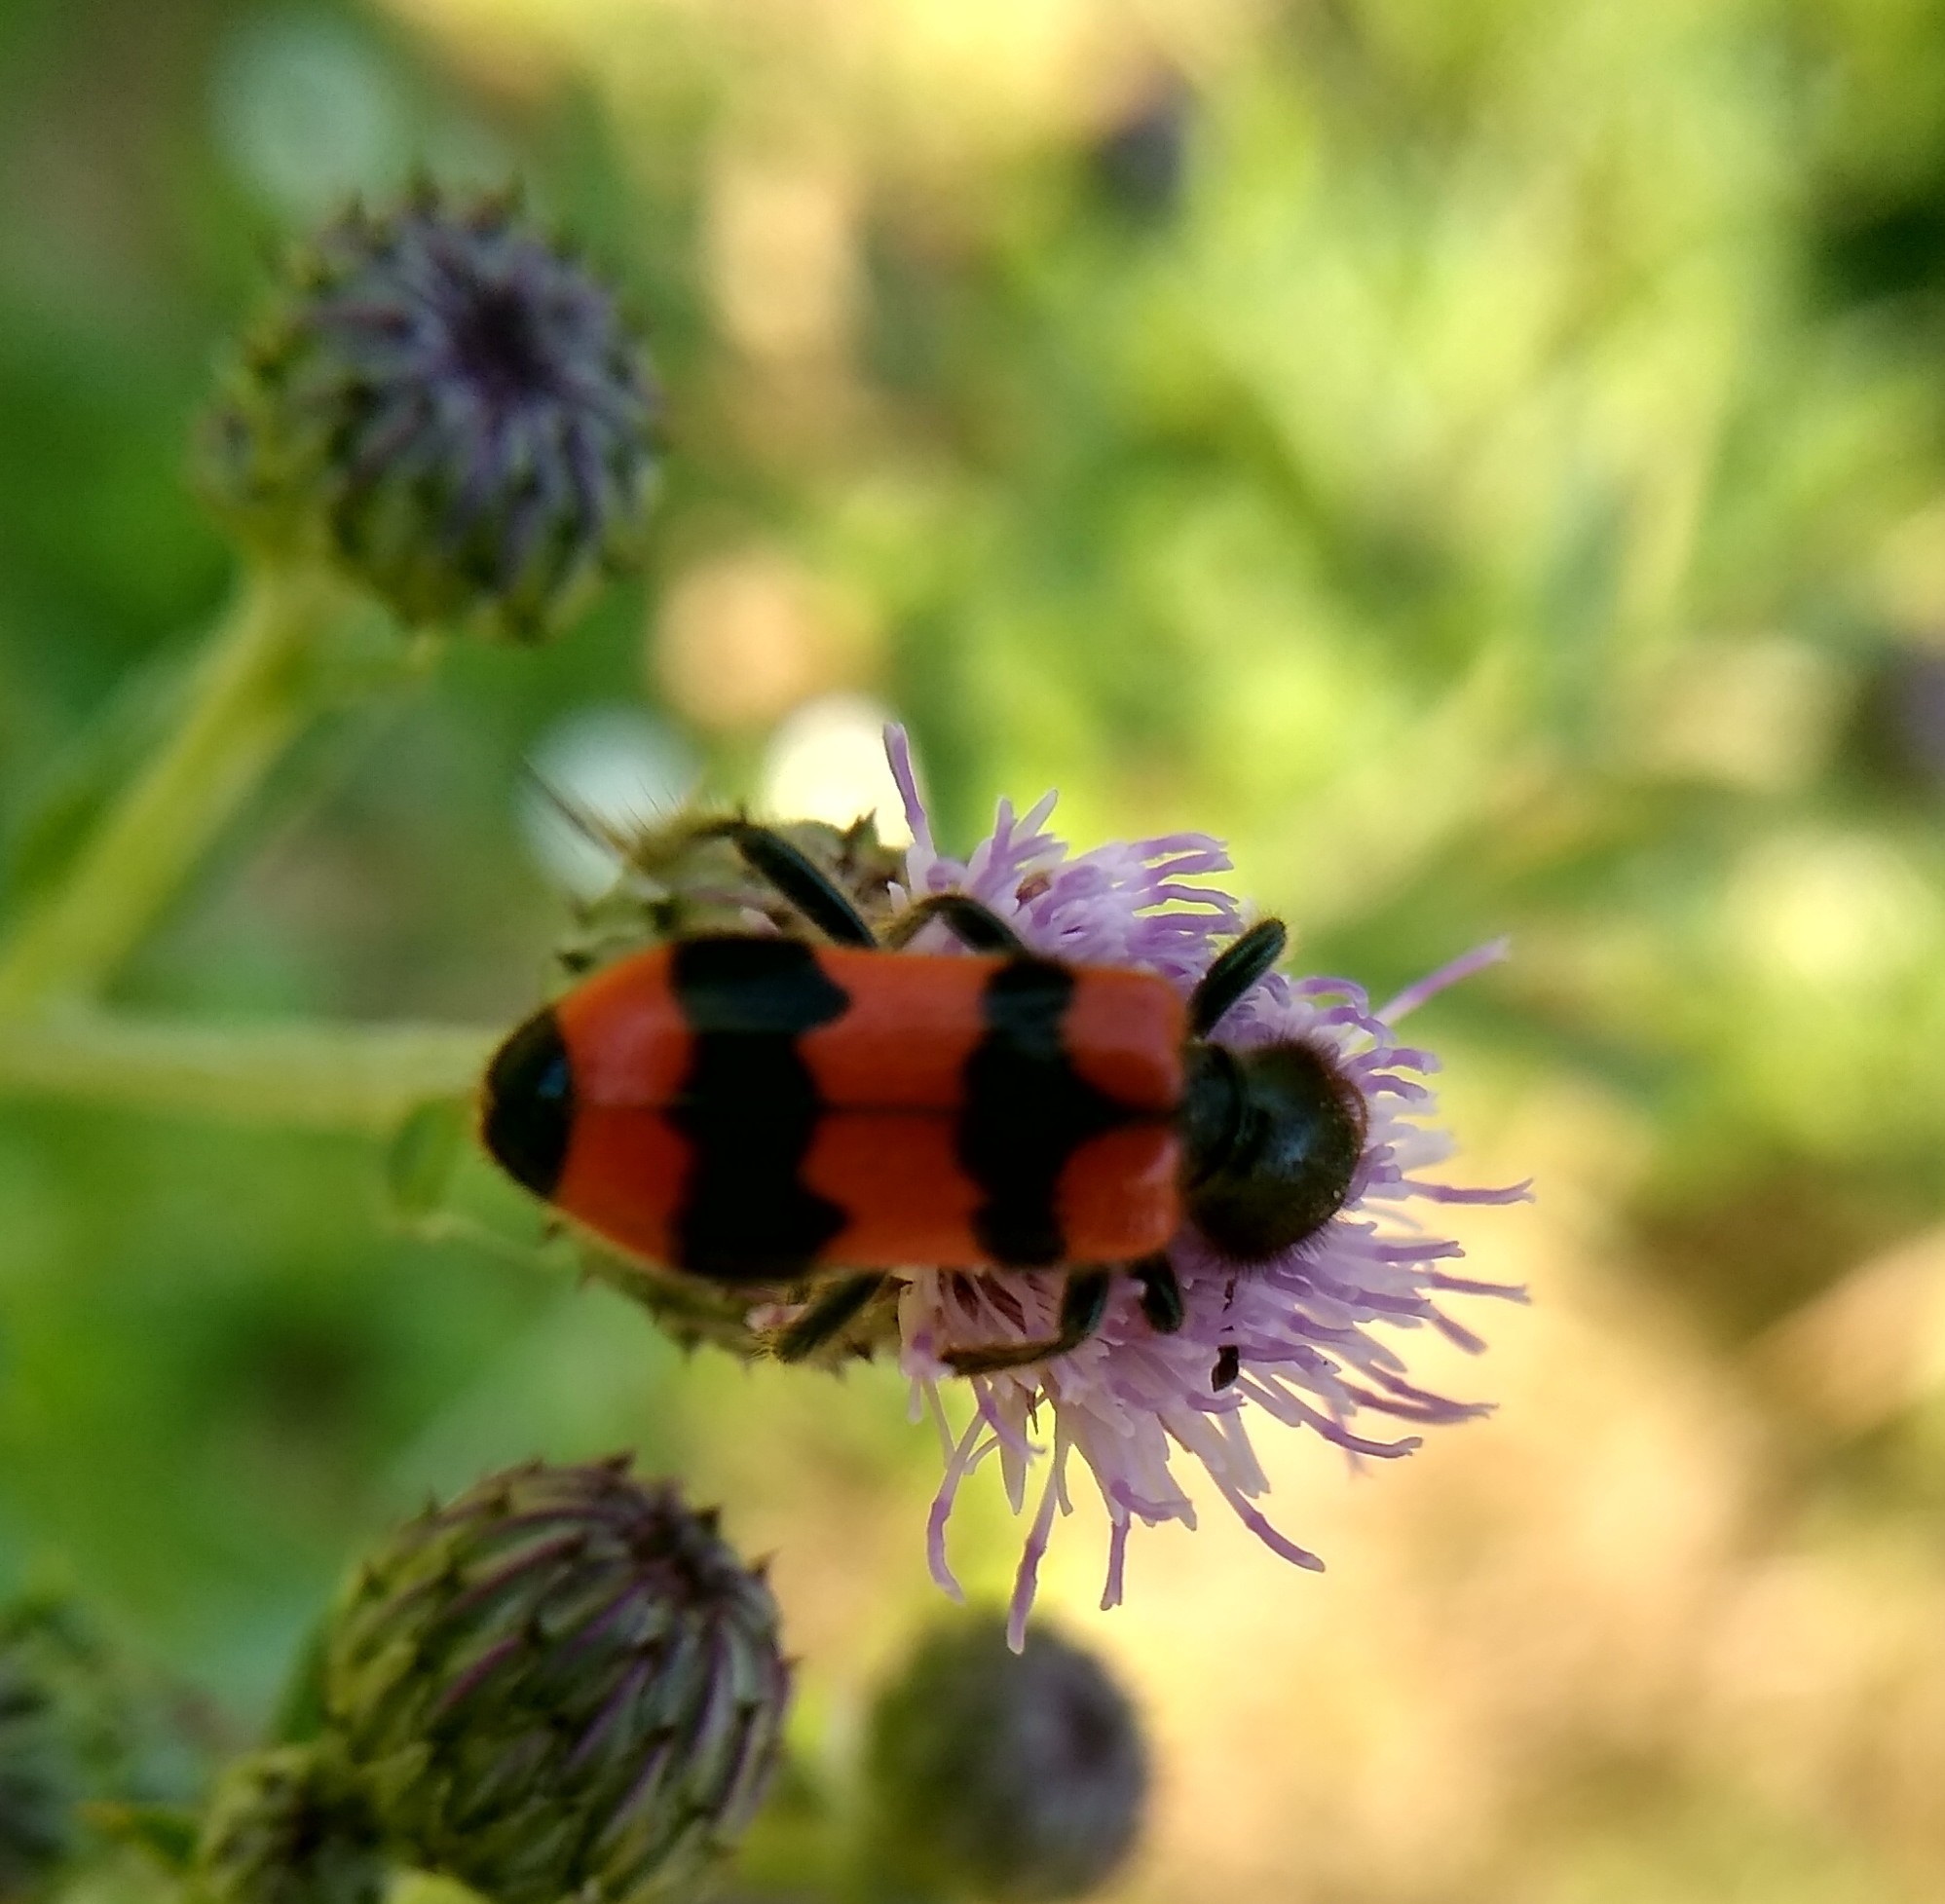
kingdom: Animalia
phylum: Arthropoda
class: Insecta
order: Coleoptera
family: Cleridae
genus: Trichodes
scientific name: Trichodes apiarius
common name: Bee-eating beetle
